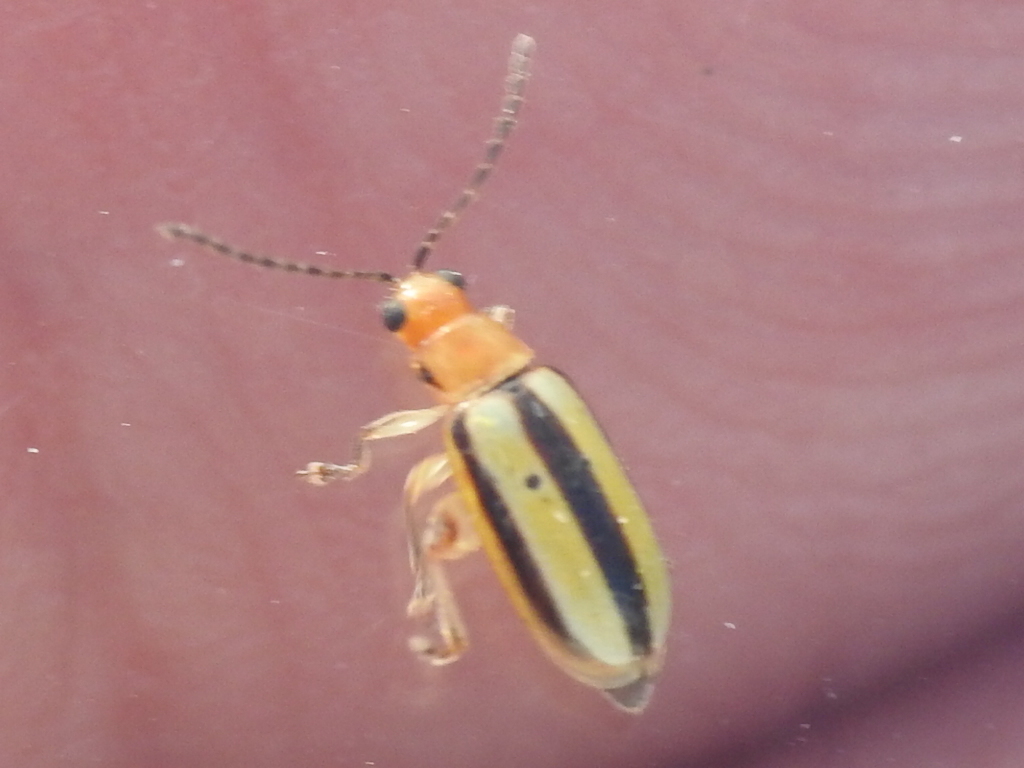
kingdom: Animalia
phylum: Arthropoda
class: Insecta
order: Coleoptera
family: Chrysomelidae
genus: Systena
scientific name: Systena gracilenta
